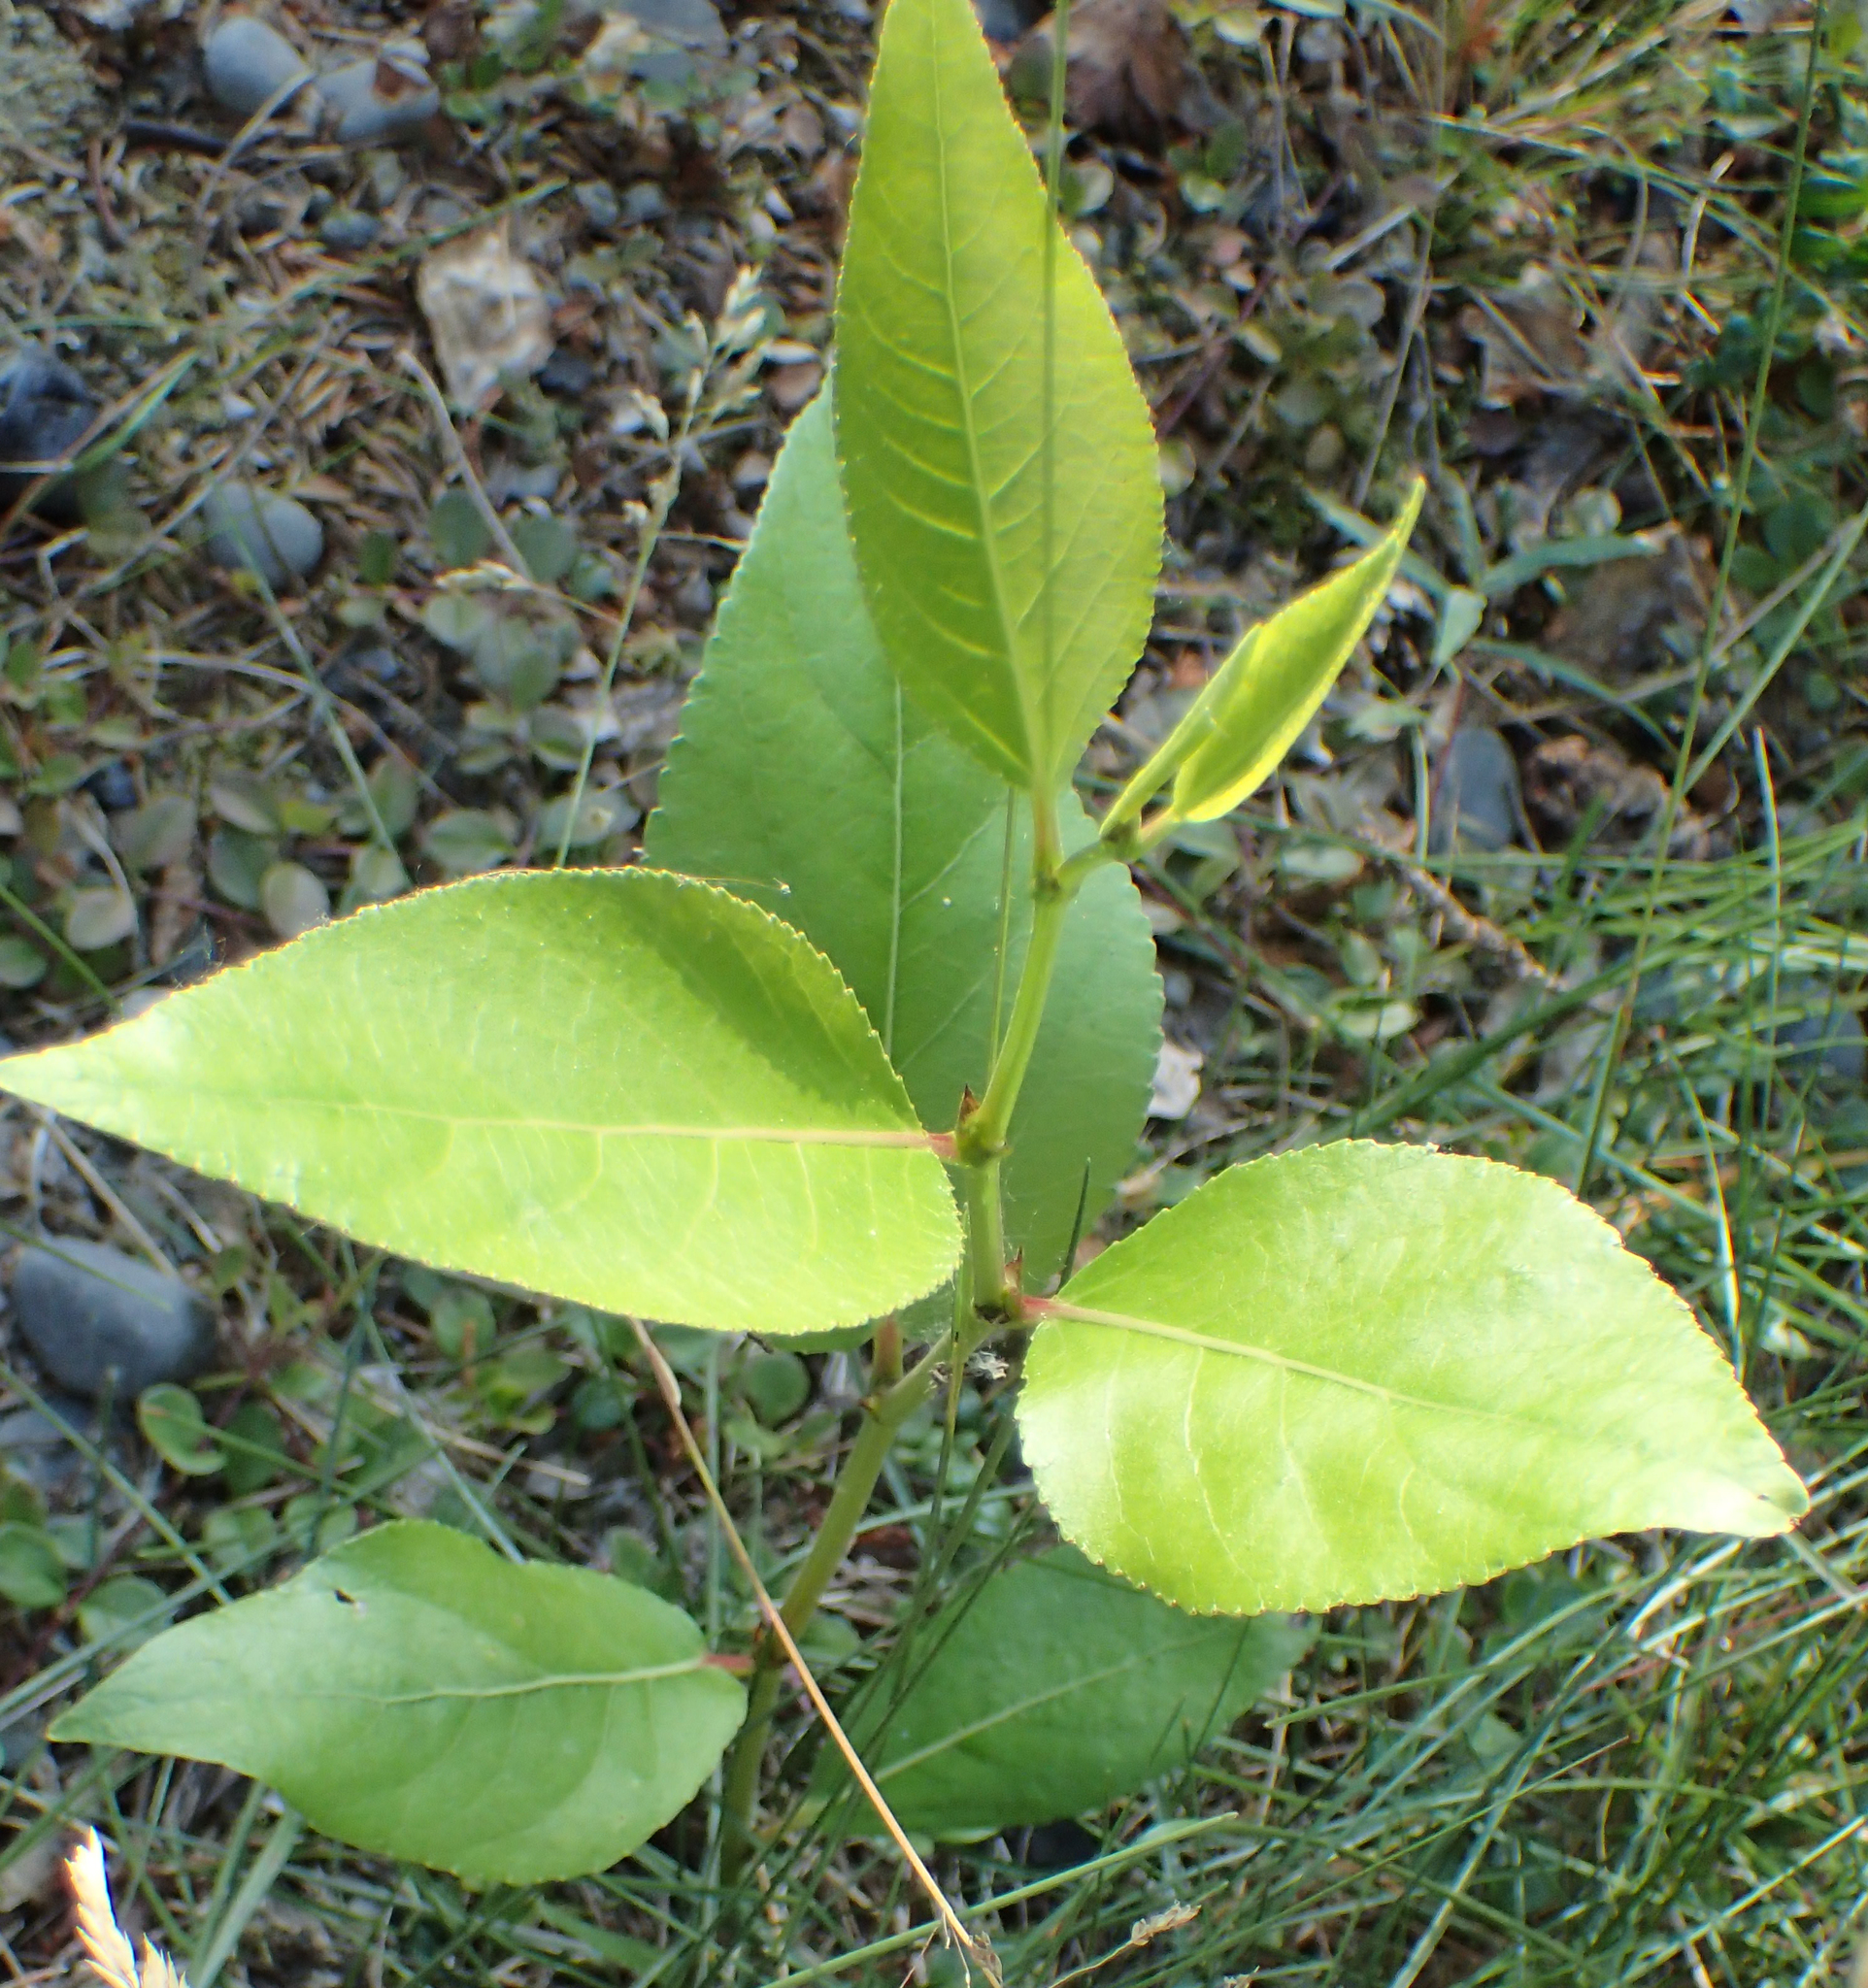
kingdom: Plantae
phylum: Tracheophyta
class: Magnoliopsida
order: Malpighiales
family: Salicaceae
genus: Populus
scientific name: Populus trichocarpa
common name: Black cottonwood
